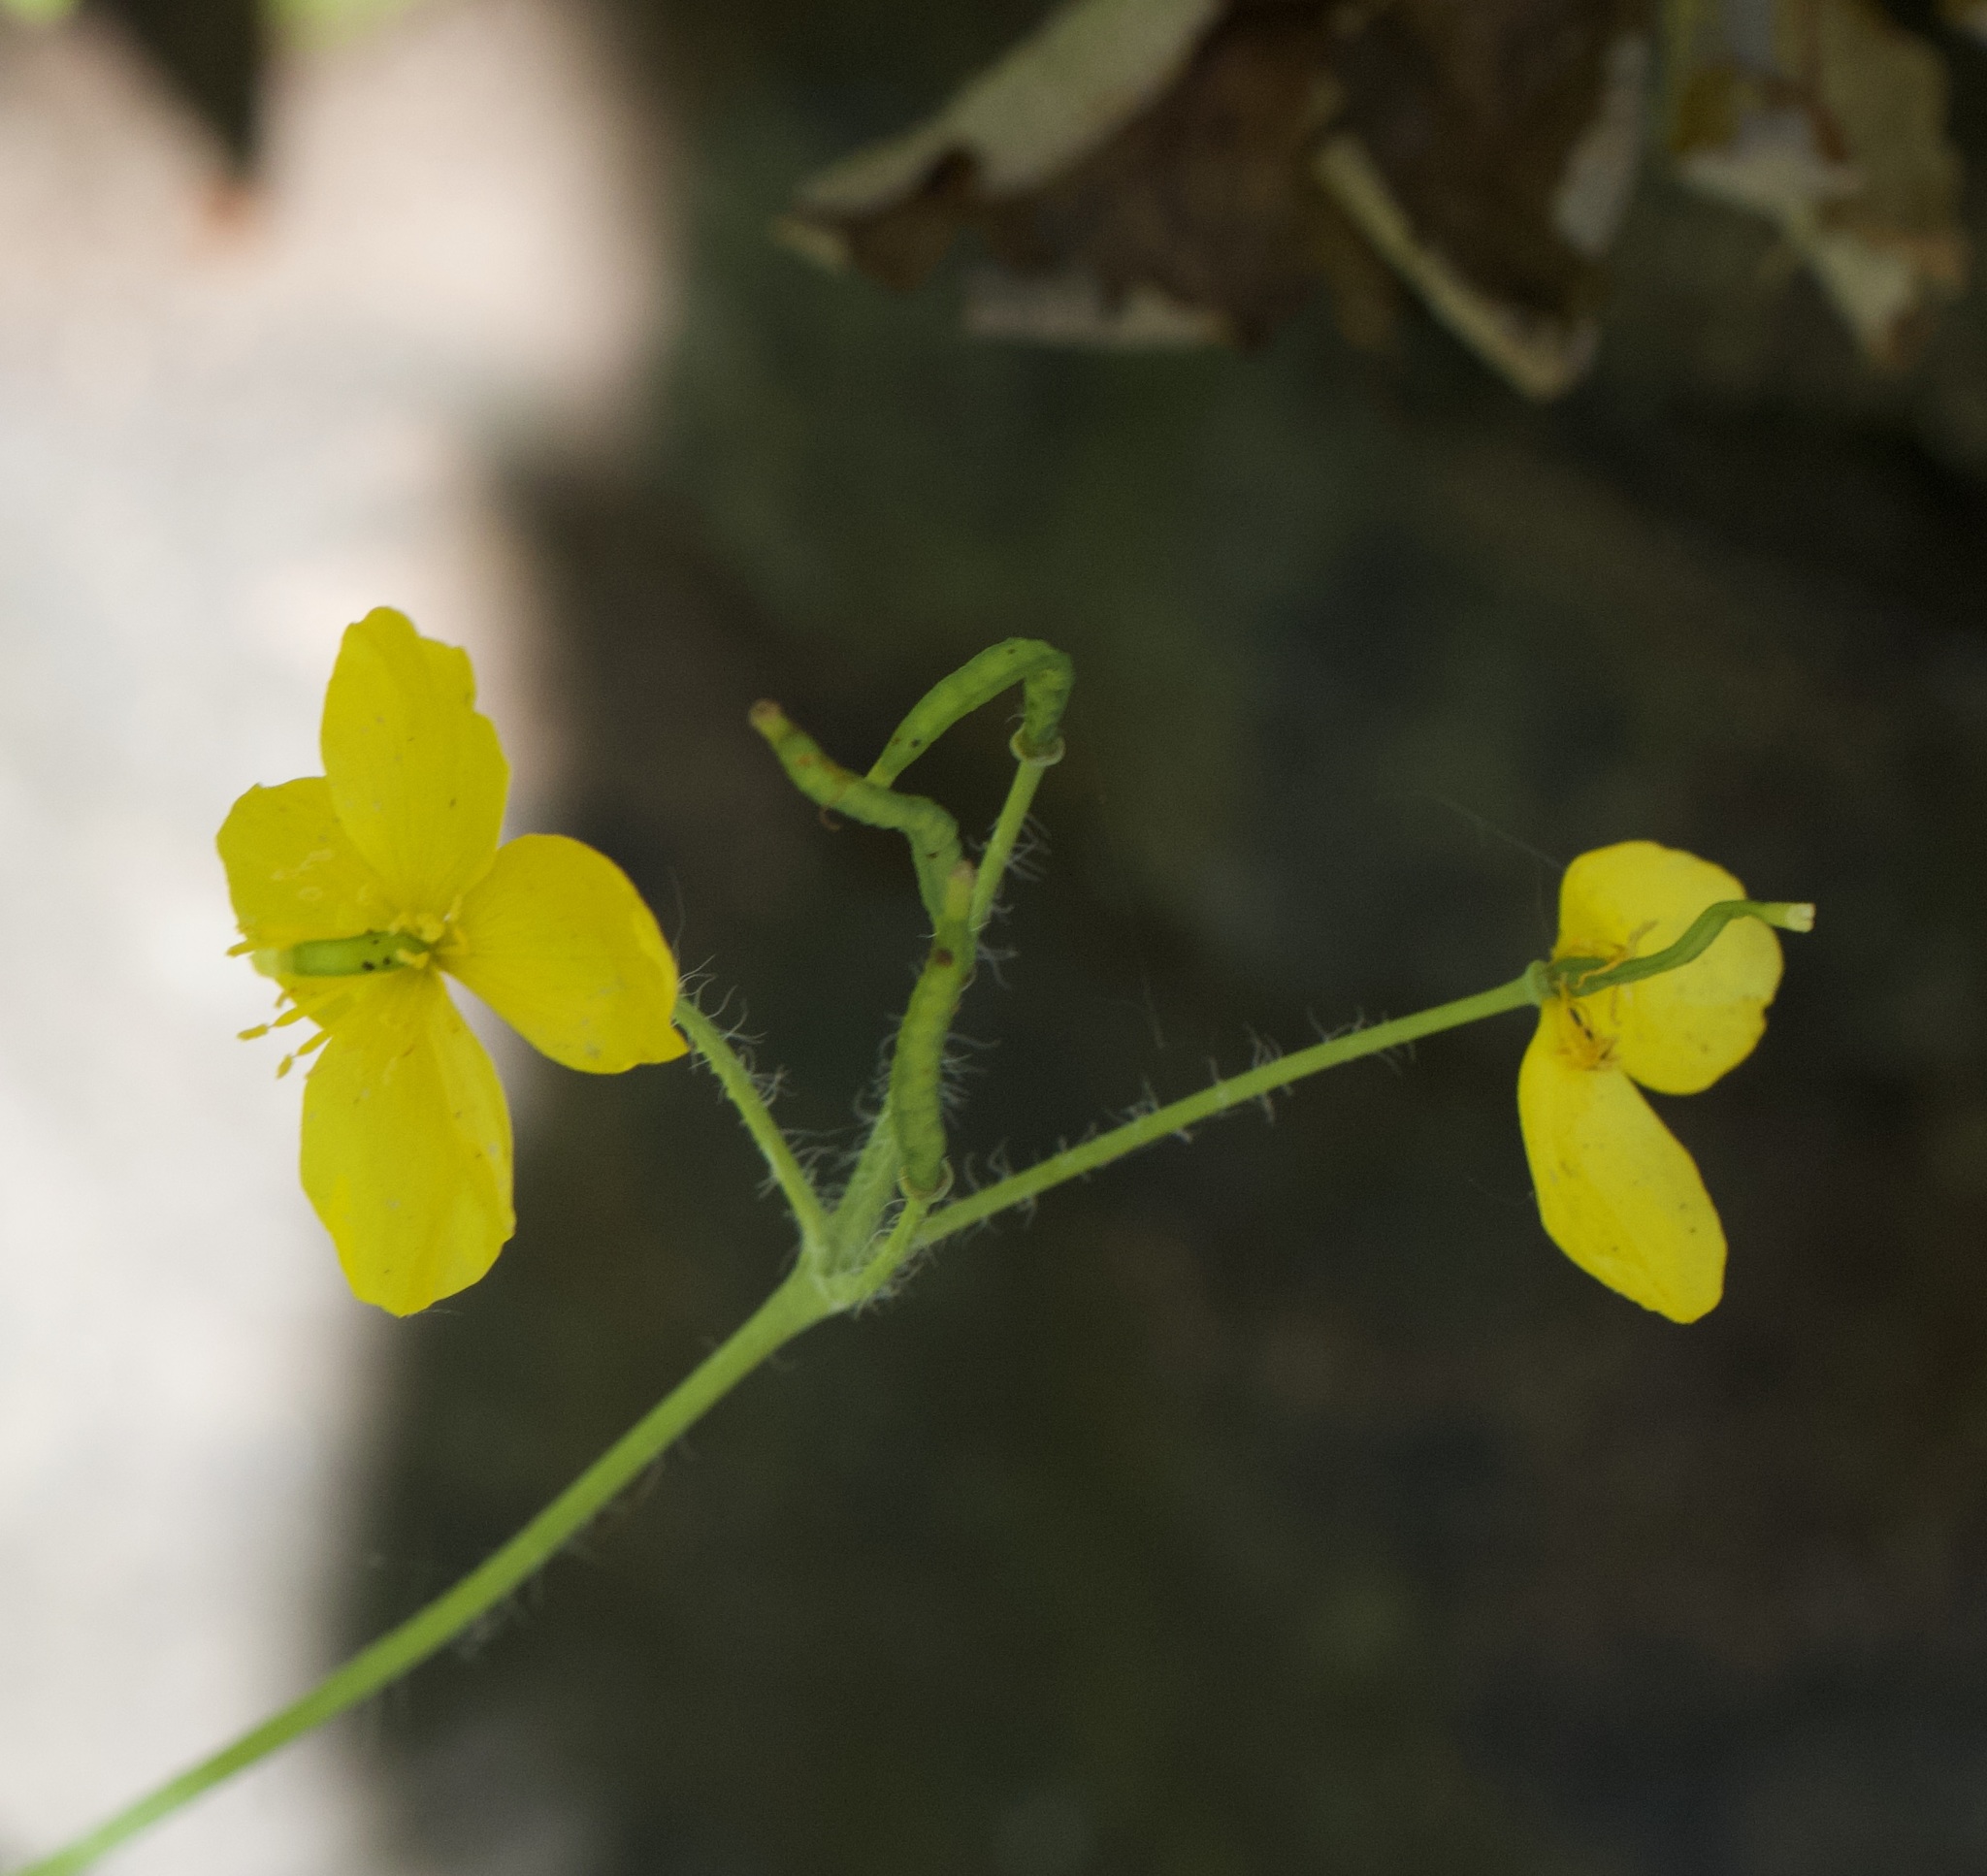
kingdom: Plantae
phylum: Tracheophyta
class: Magnoliopsida
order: Ranunculales
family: Papaveraceae
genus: Chelidonium
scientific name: Chelidonium majus
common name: Greater celandine
